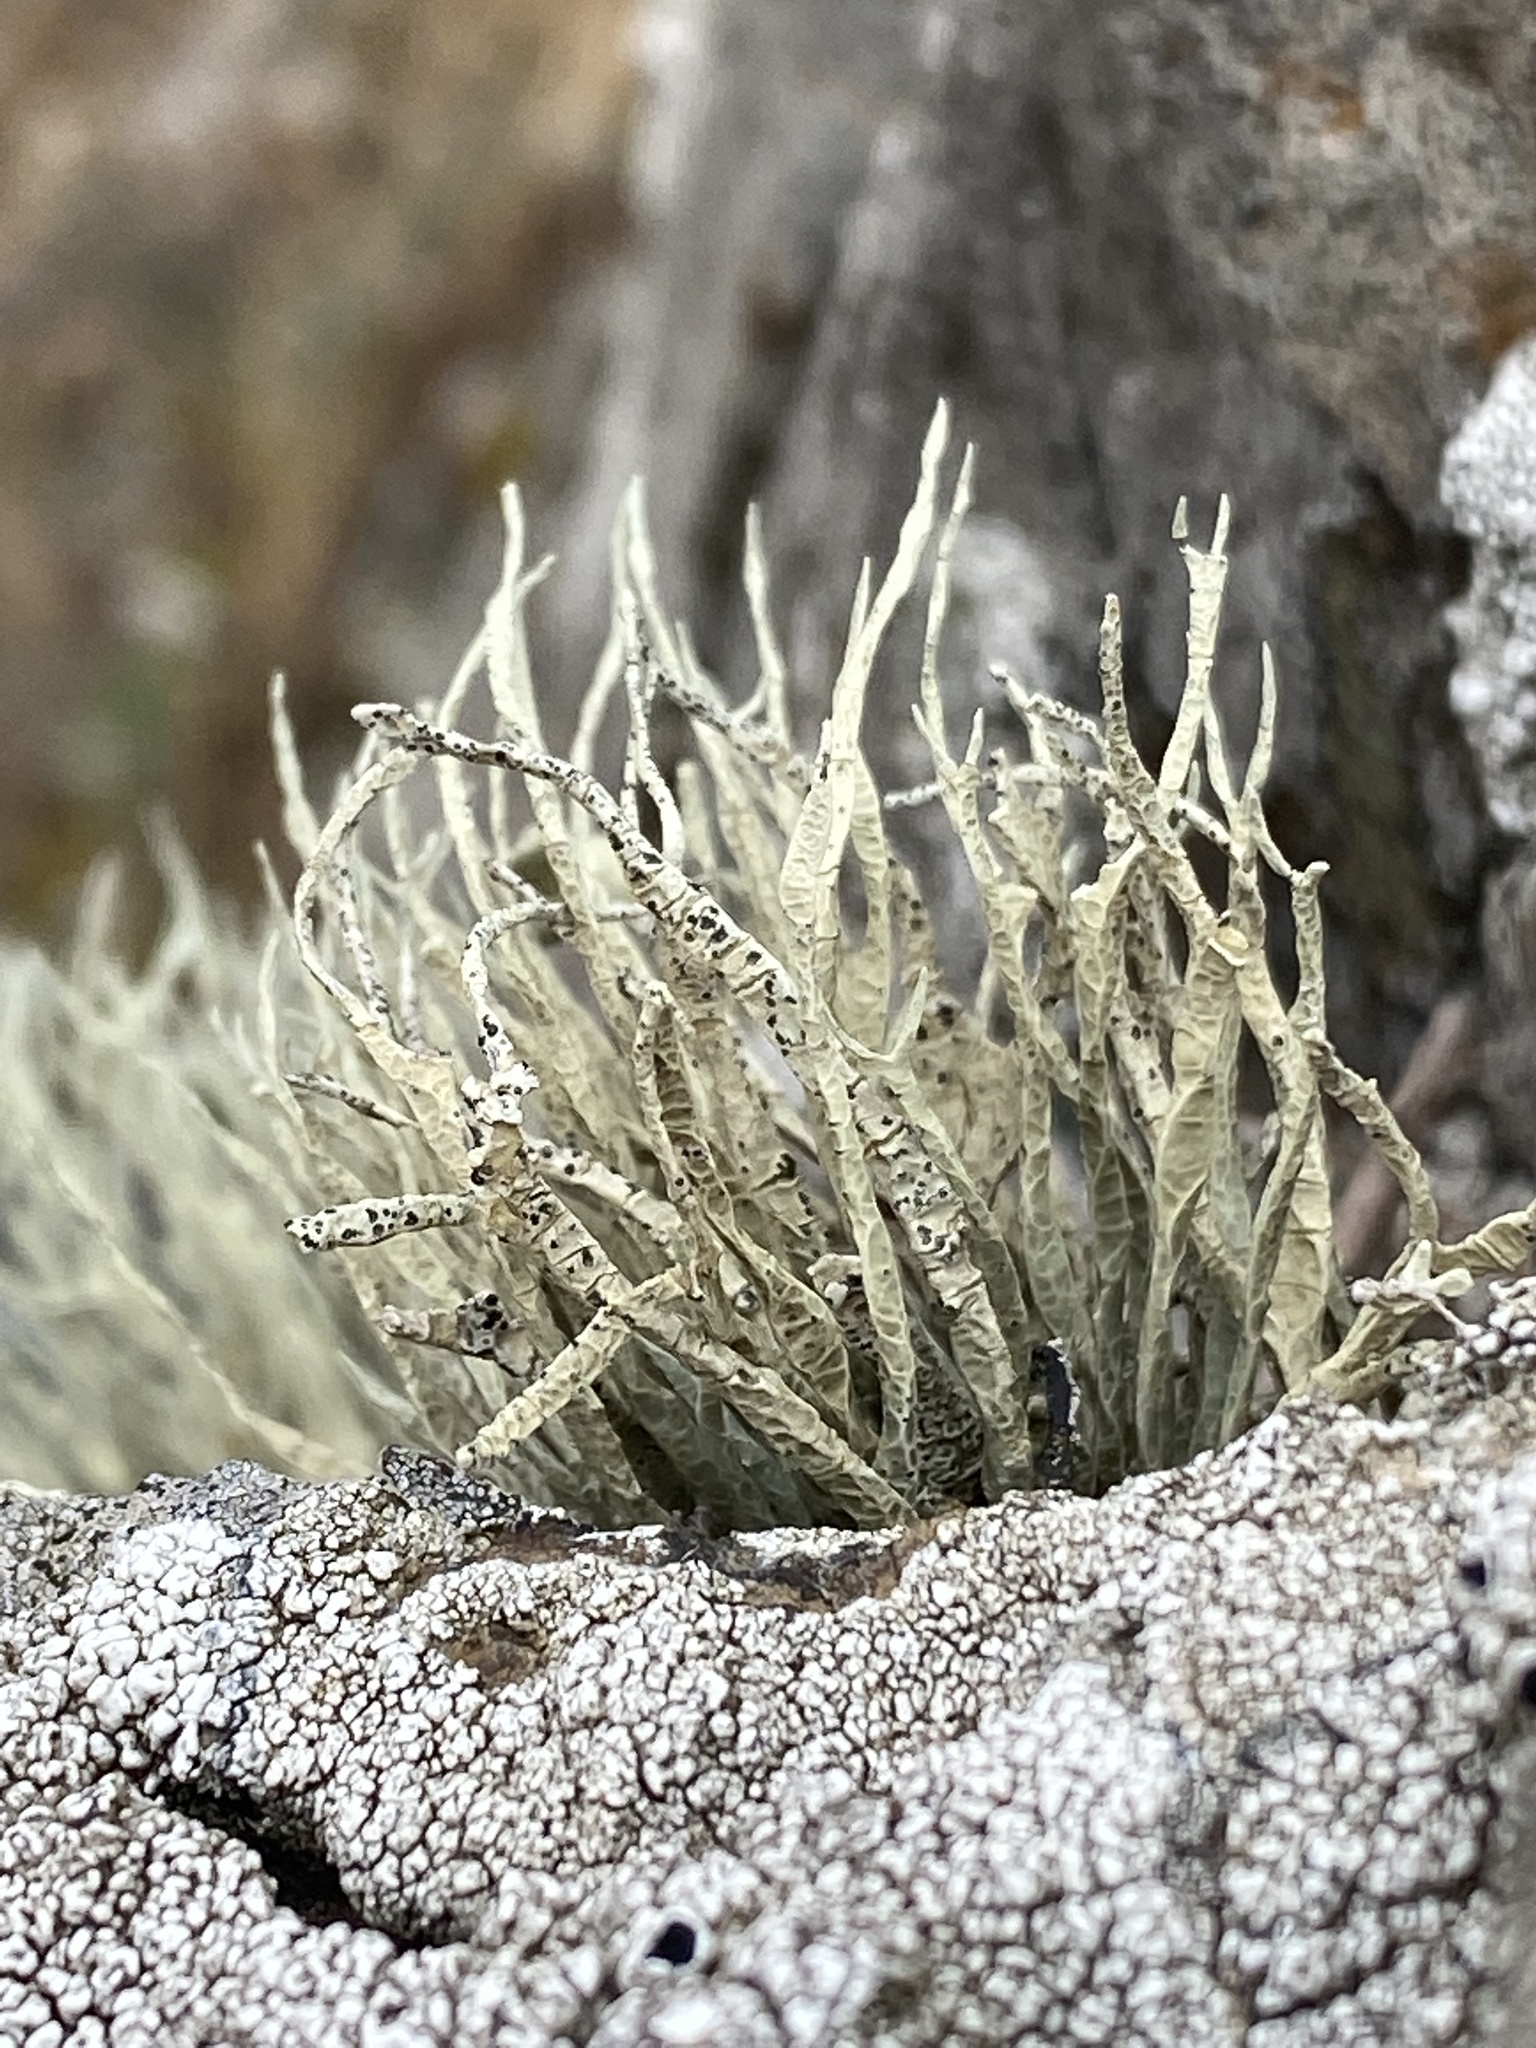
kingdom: Fungi
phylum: Ascomycota
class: Lecanoromycetes
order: Lecanorales
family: Ramalinaceae
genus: Niebla
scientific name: Niebla homalea
